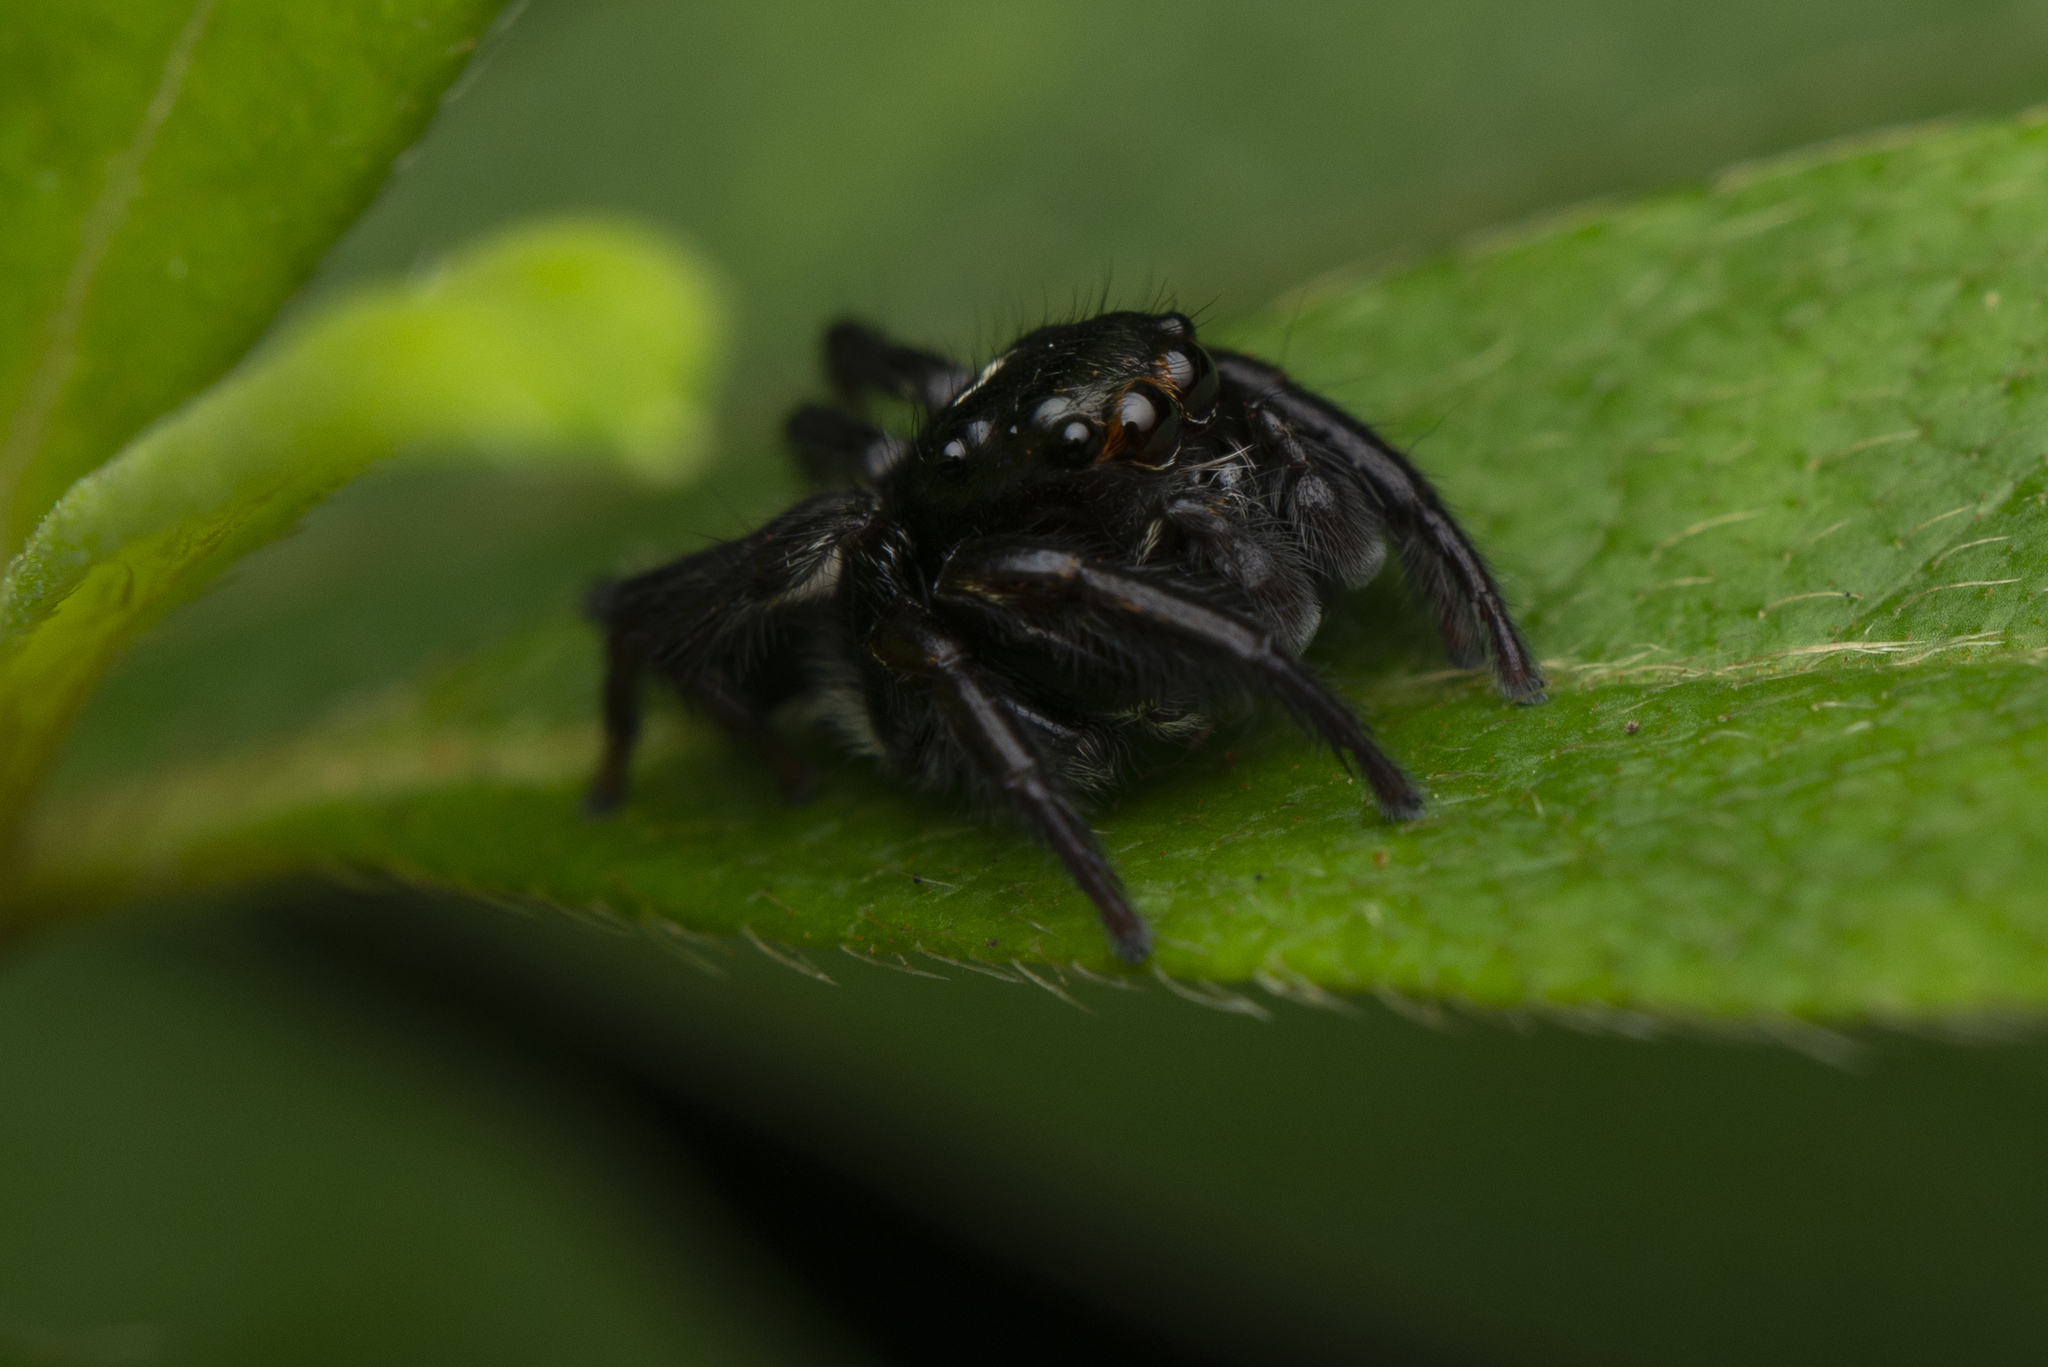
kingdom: Animalia
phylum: Arthropoda
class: Arachnida
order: Araneae
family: Salticidae
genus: Ptocasius
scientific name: Ptocasius strupifer
